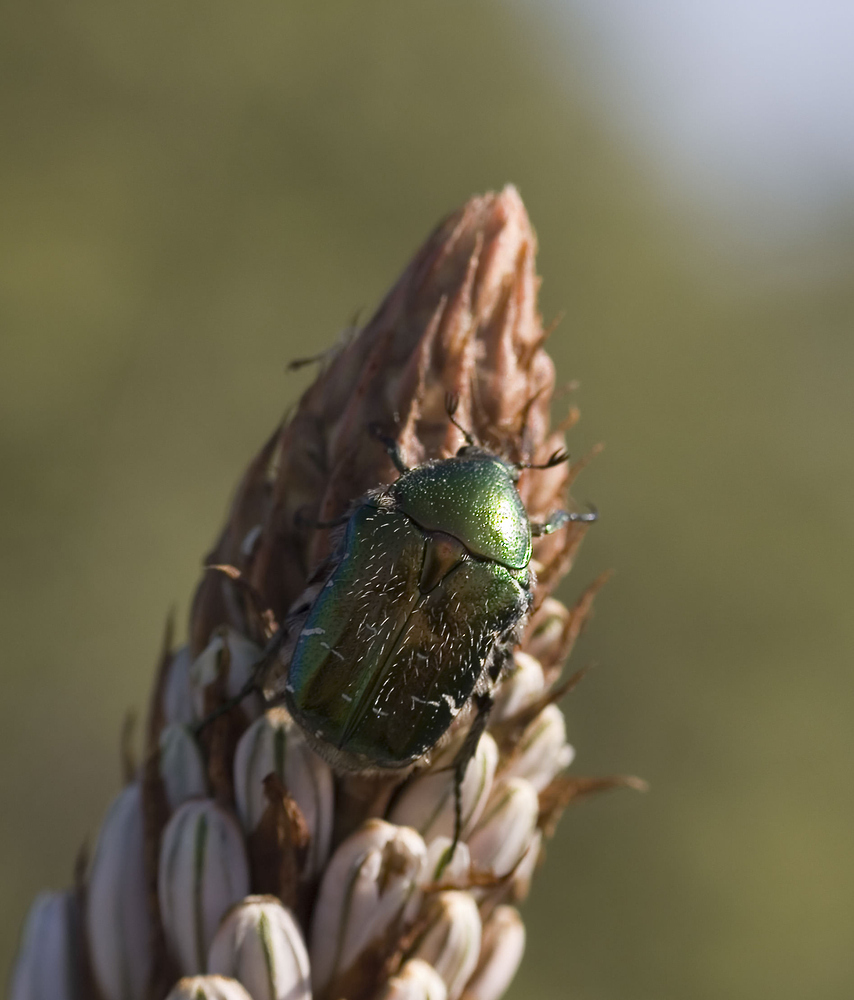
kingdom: Animalia
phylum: Arthropoda
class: Insecta
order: Coleoptera
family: Scarabaeidae
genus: Cetonia
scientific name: Cetonia aurata
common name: Rose chafer
